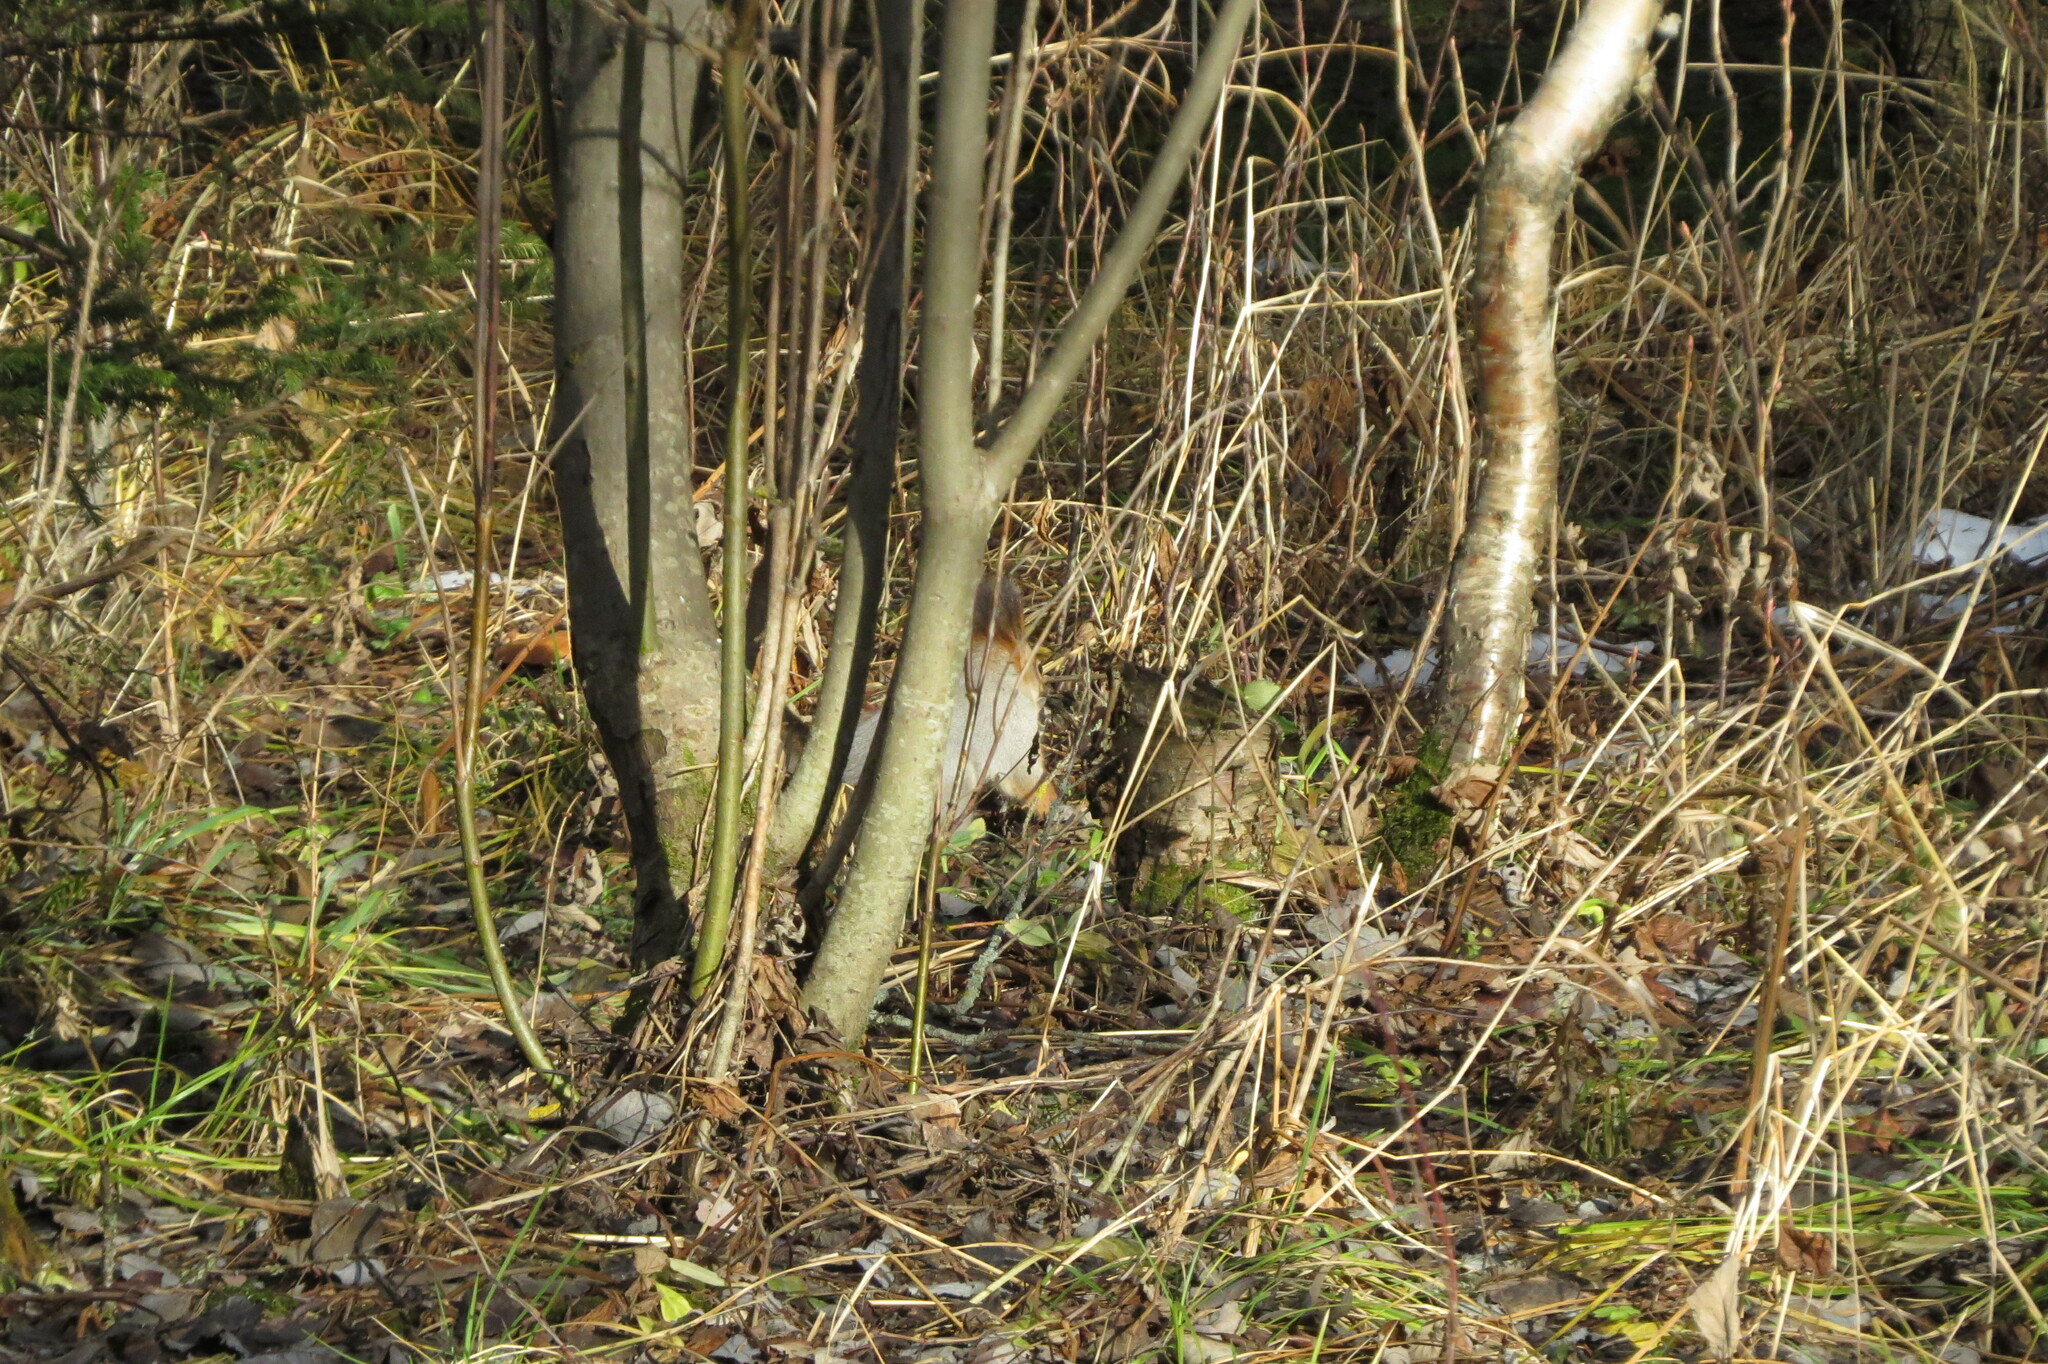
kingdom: Animalia
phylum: Chordata
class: Mammalia
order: Rodentia
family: Sciuridae
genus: Sciurus
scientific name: Sciurus vulgaris
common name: Eurasian red squirrel
